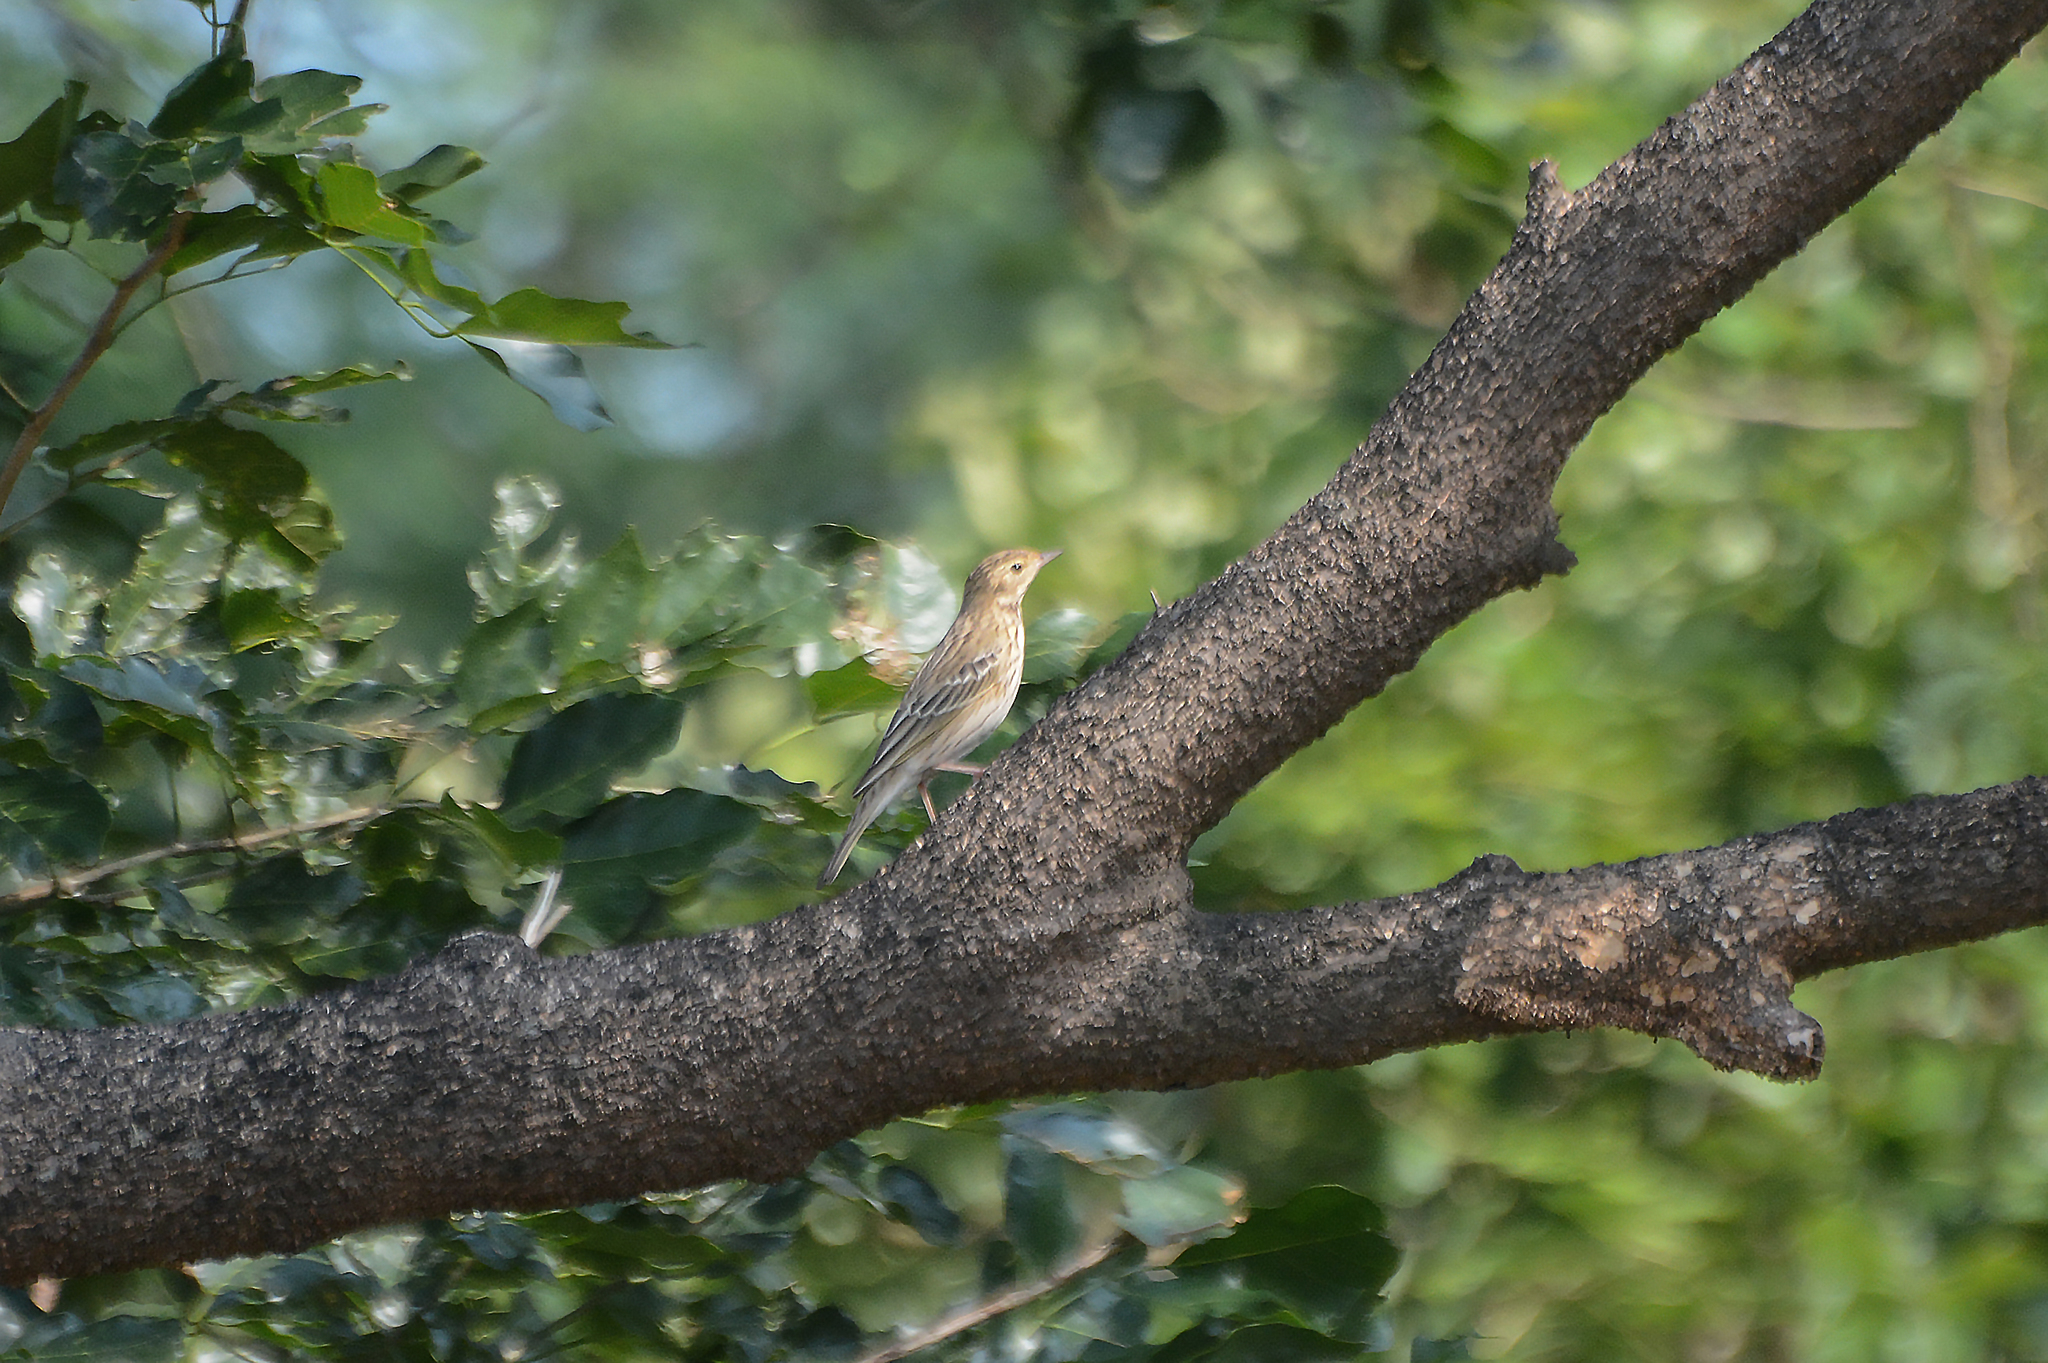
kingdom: Animalia
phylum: Chordata
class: Aves
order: Passeriformes
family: Motacillidae
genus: Anthus
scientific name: Anthus trivialis
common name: Tree pipit
